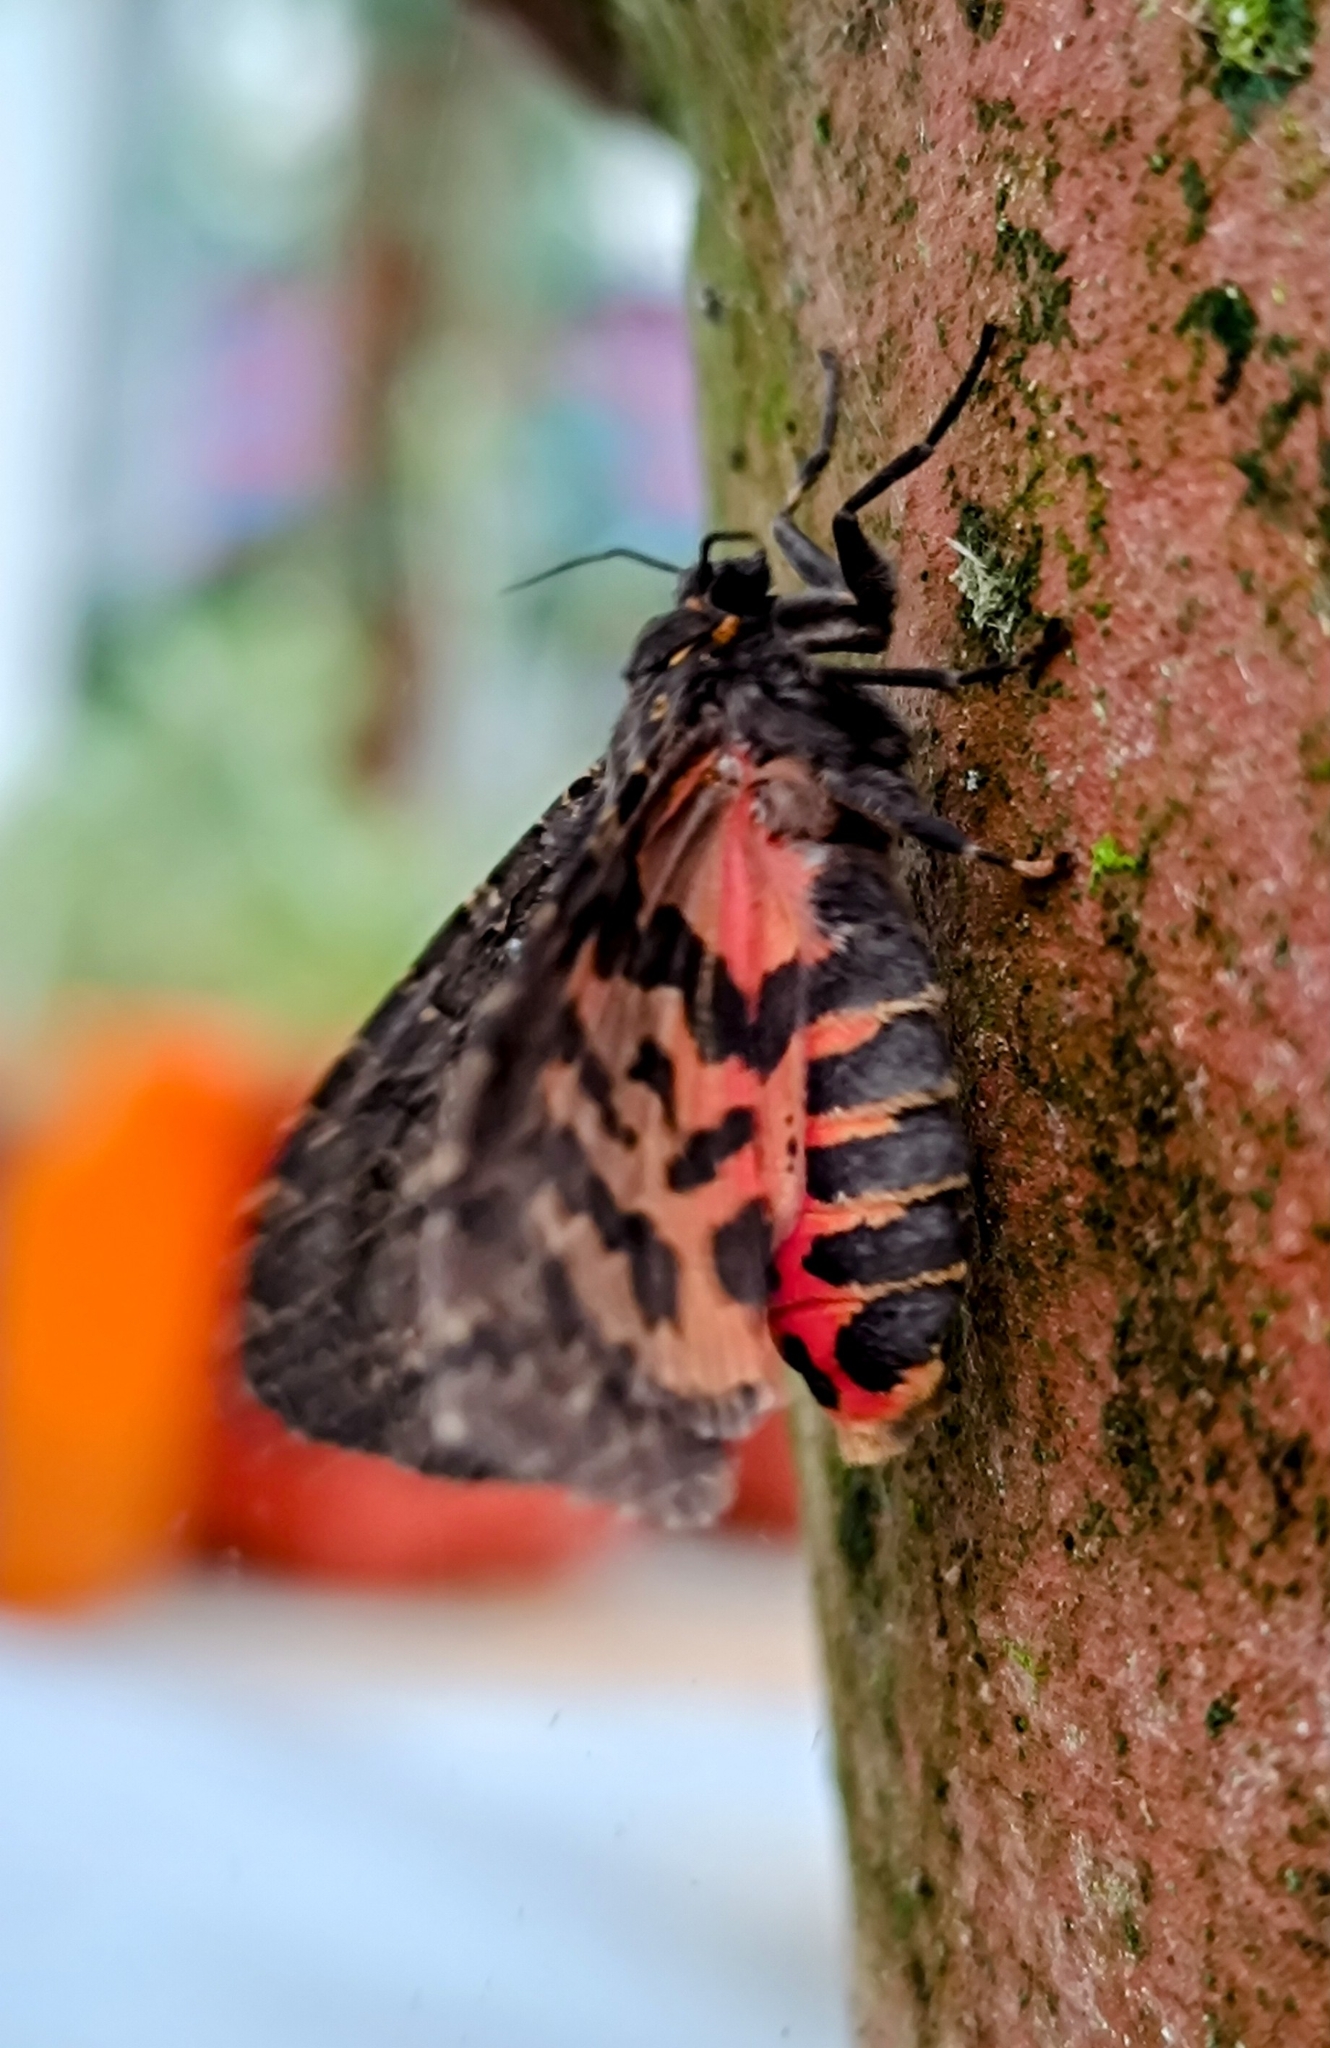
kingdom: Animalia
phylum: Arthropoda
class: Insecta
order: Lepidoptera
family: Erebidae
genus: Olepa
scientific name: Olepa ricini
